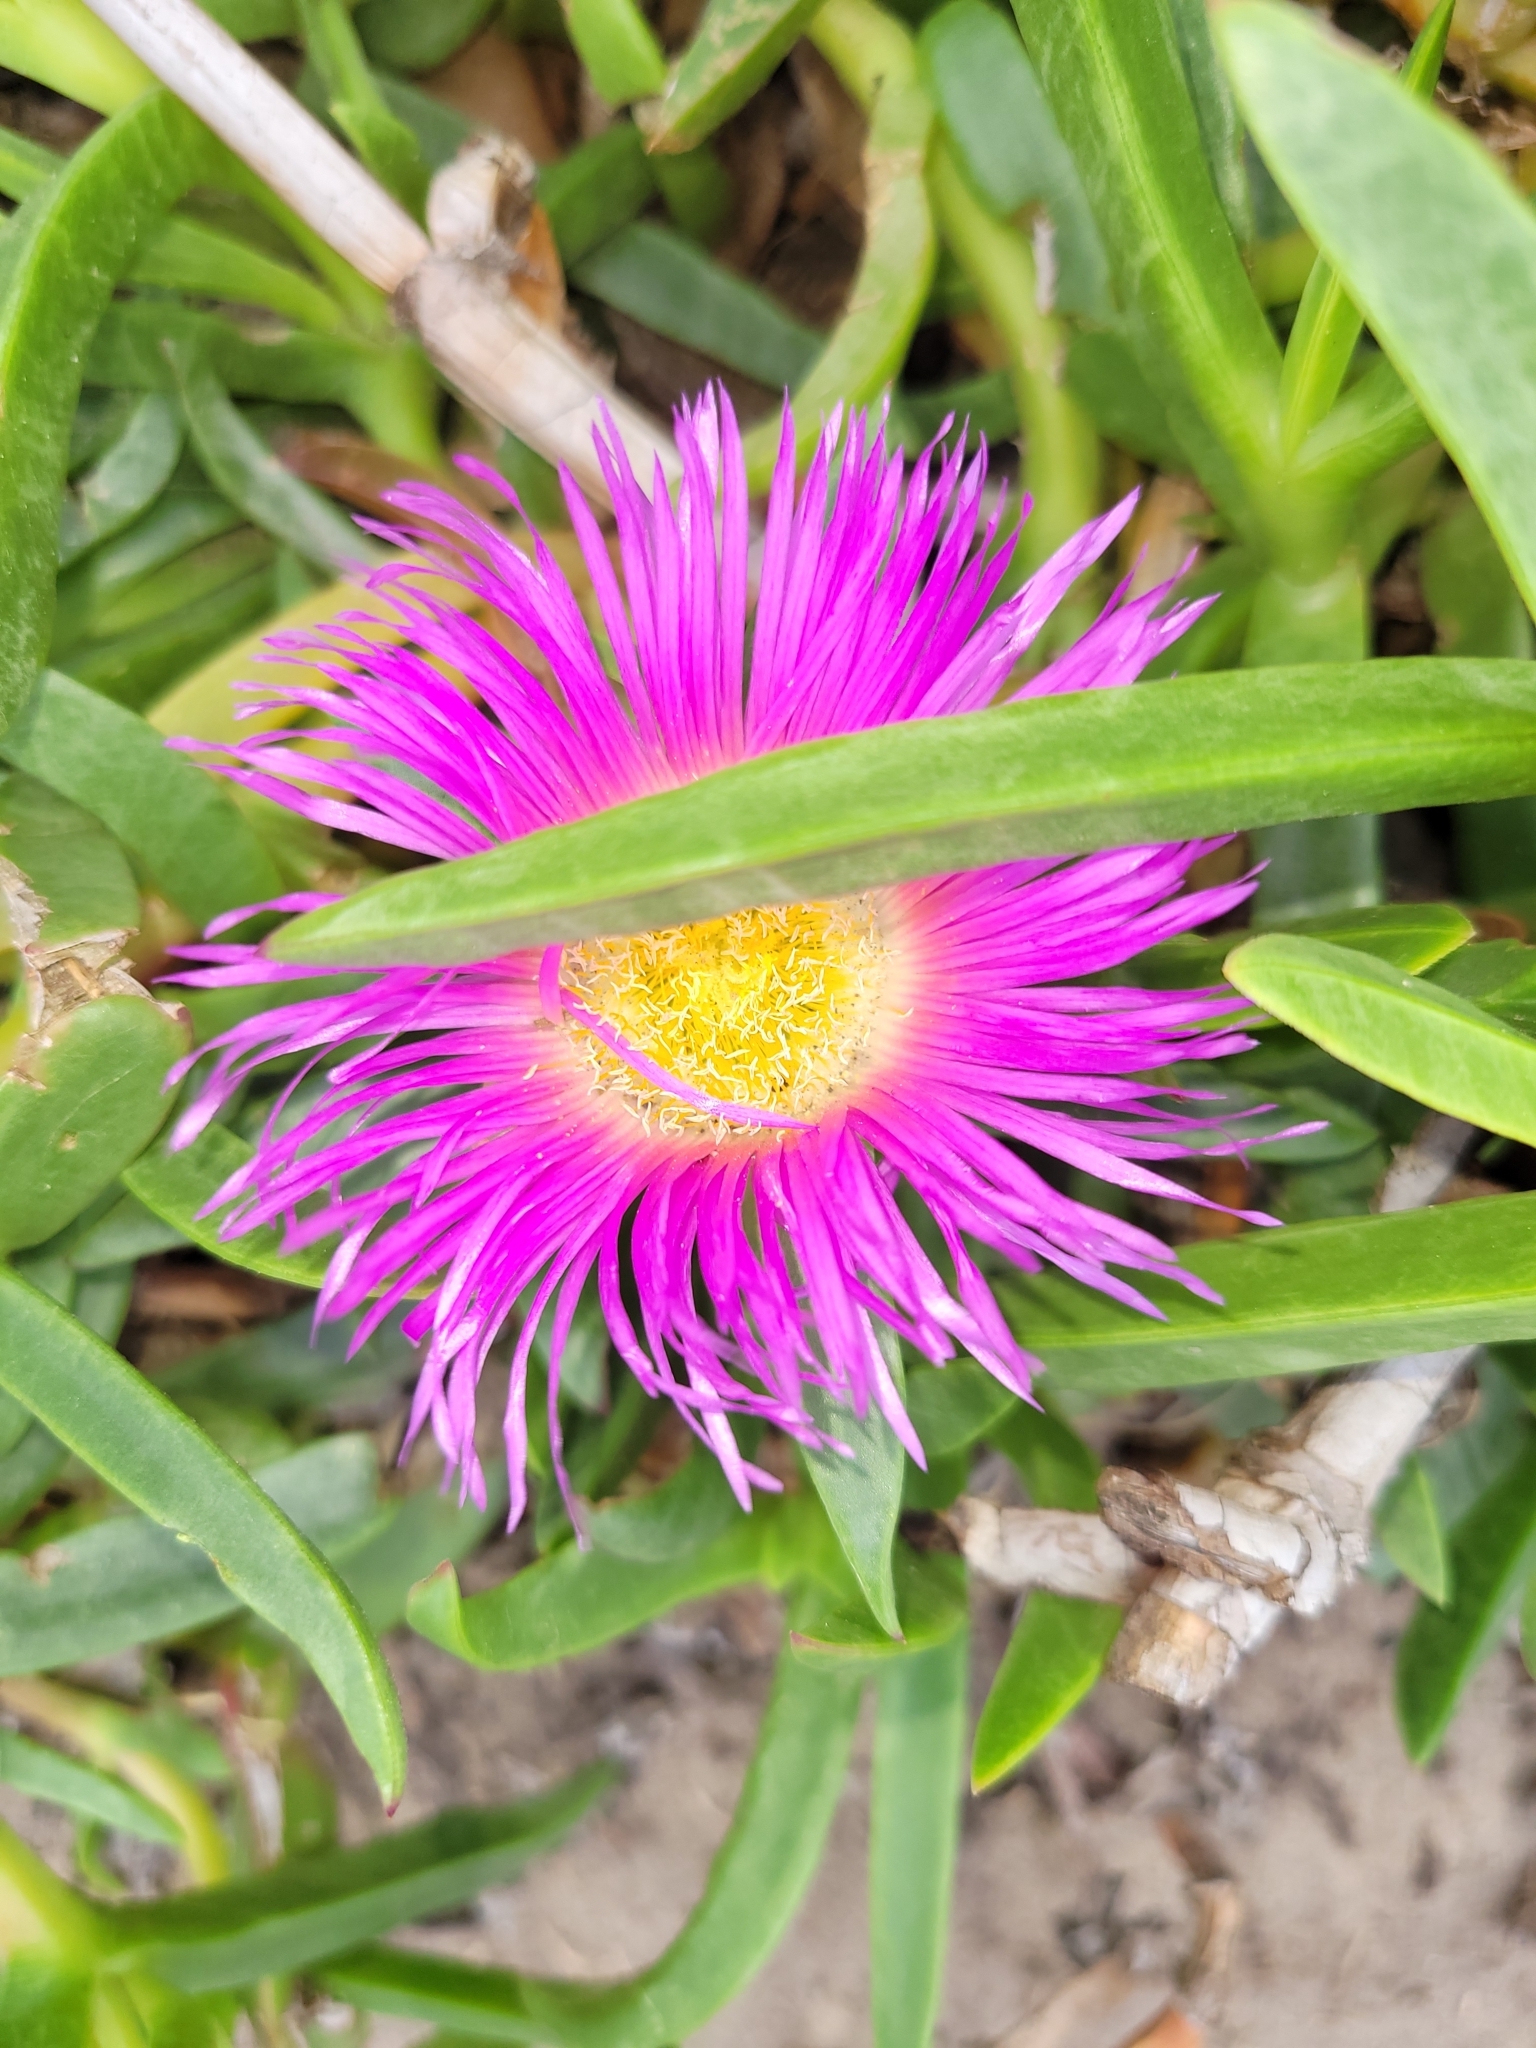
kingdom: Plantae
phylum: Tracheophyta
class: Magnoliopsida
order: Caryophyllales
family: Aizoaceae
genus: Carpobrotus
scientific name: Carpobrotus dimidiatus
